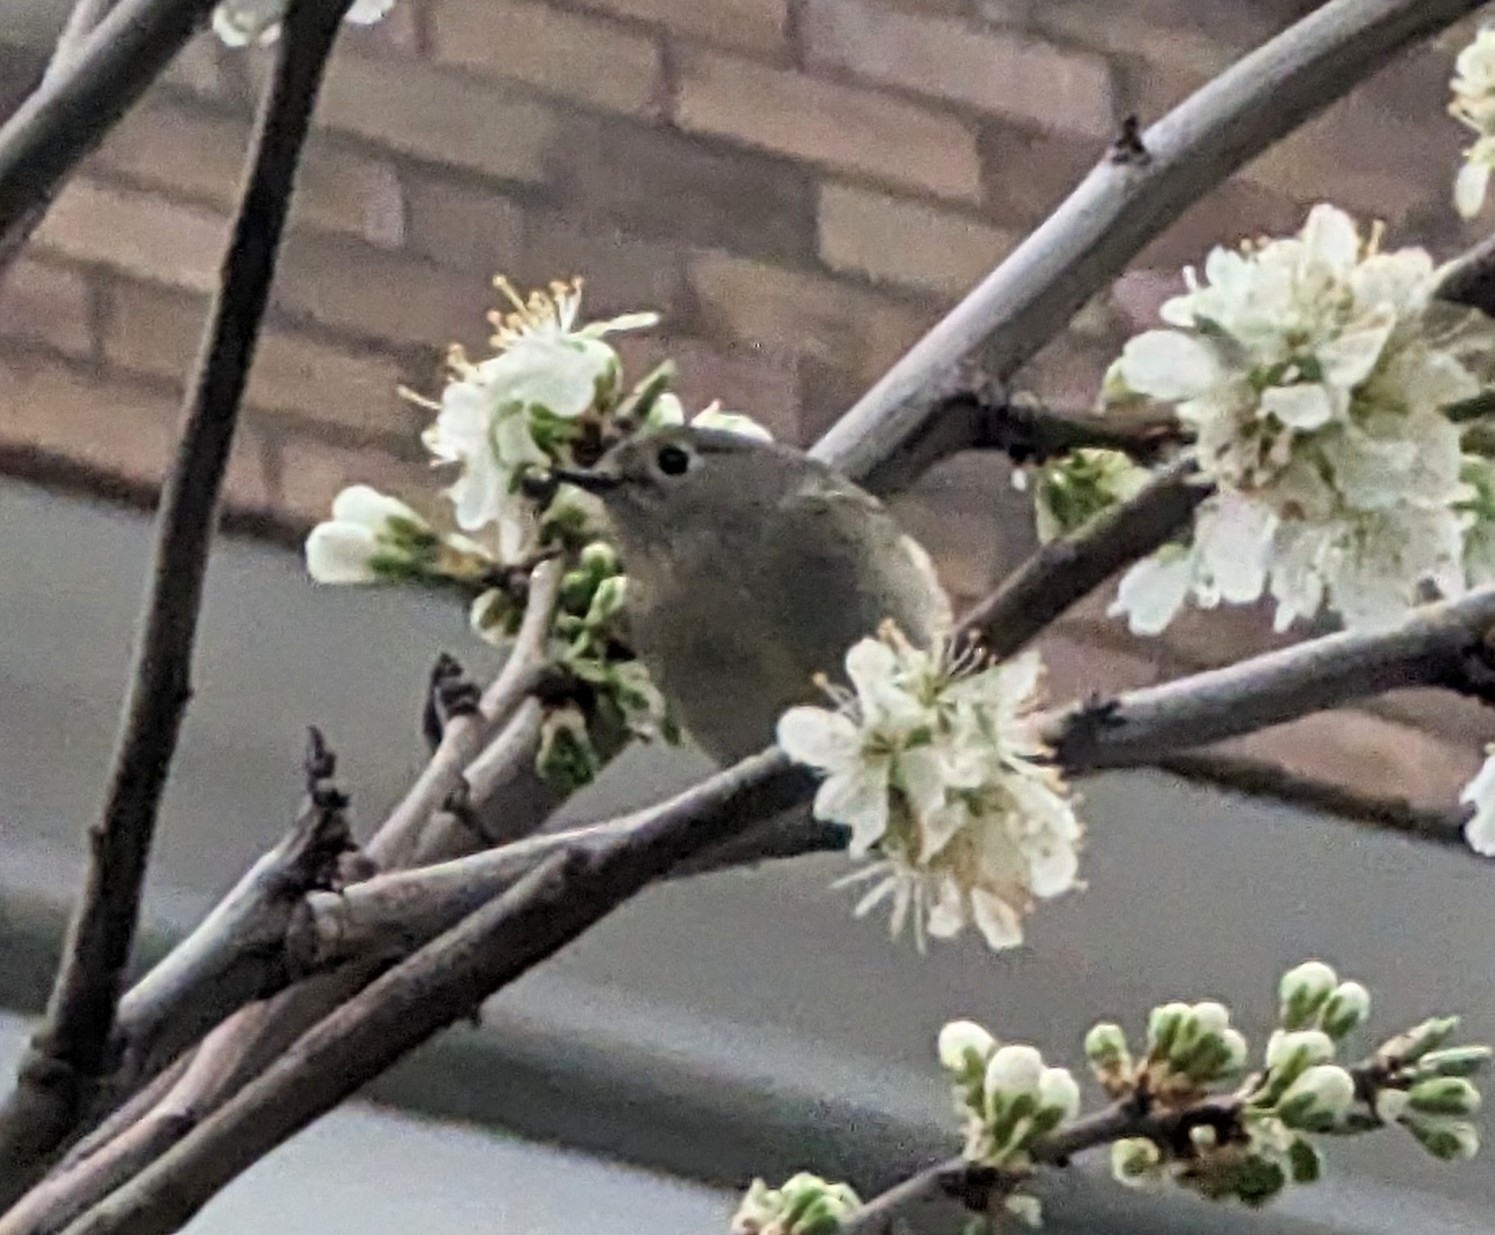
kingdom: Animalia
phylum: Chordata
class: Aves
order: Passeriformes
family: Regulidae
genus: Regulus
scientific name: Regulus calendula
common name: Ruby-crowned kinglet
